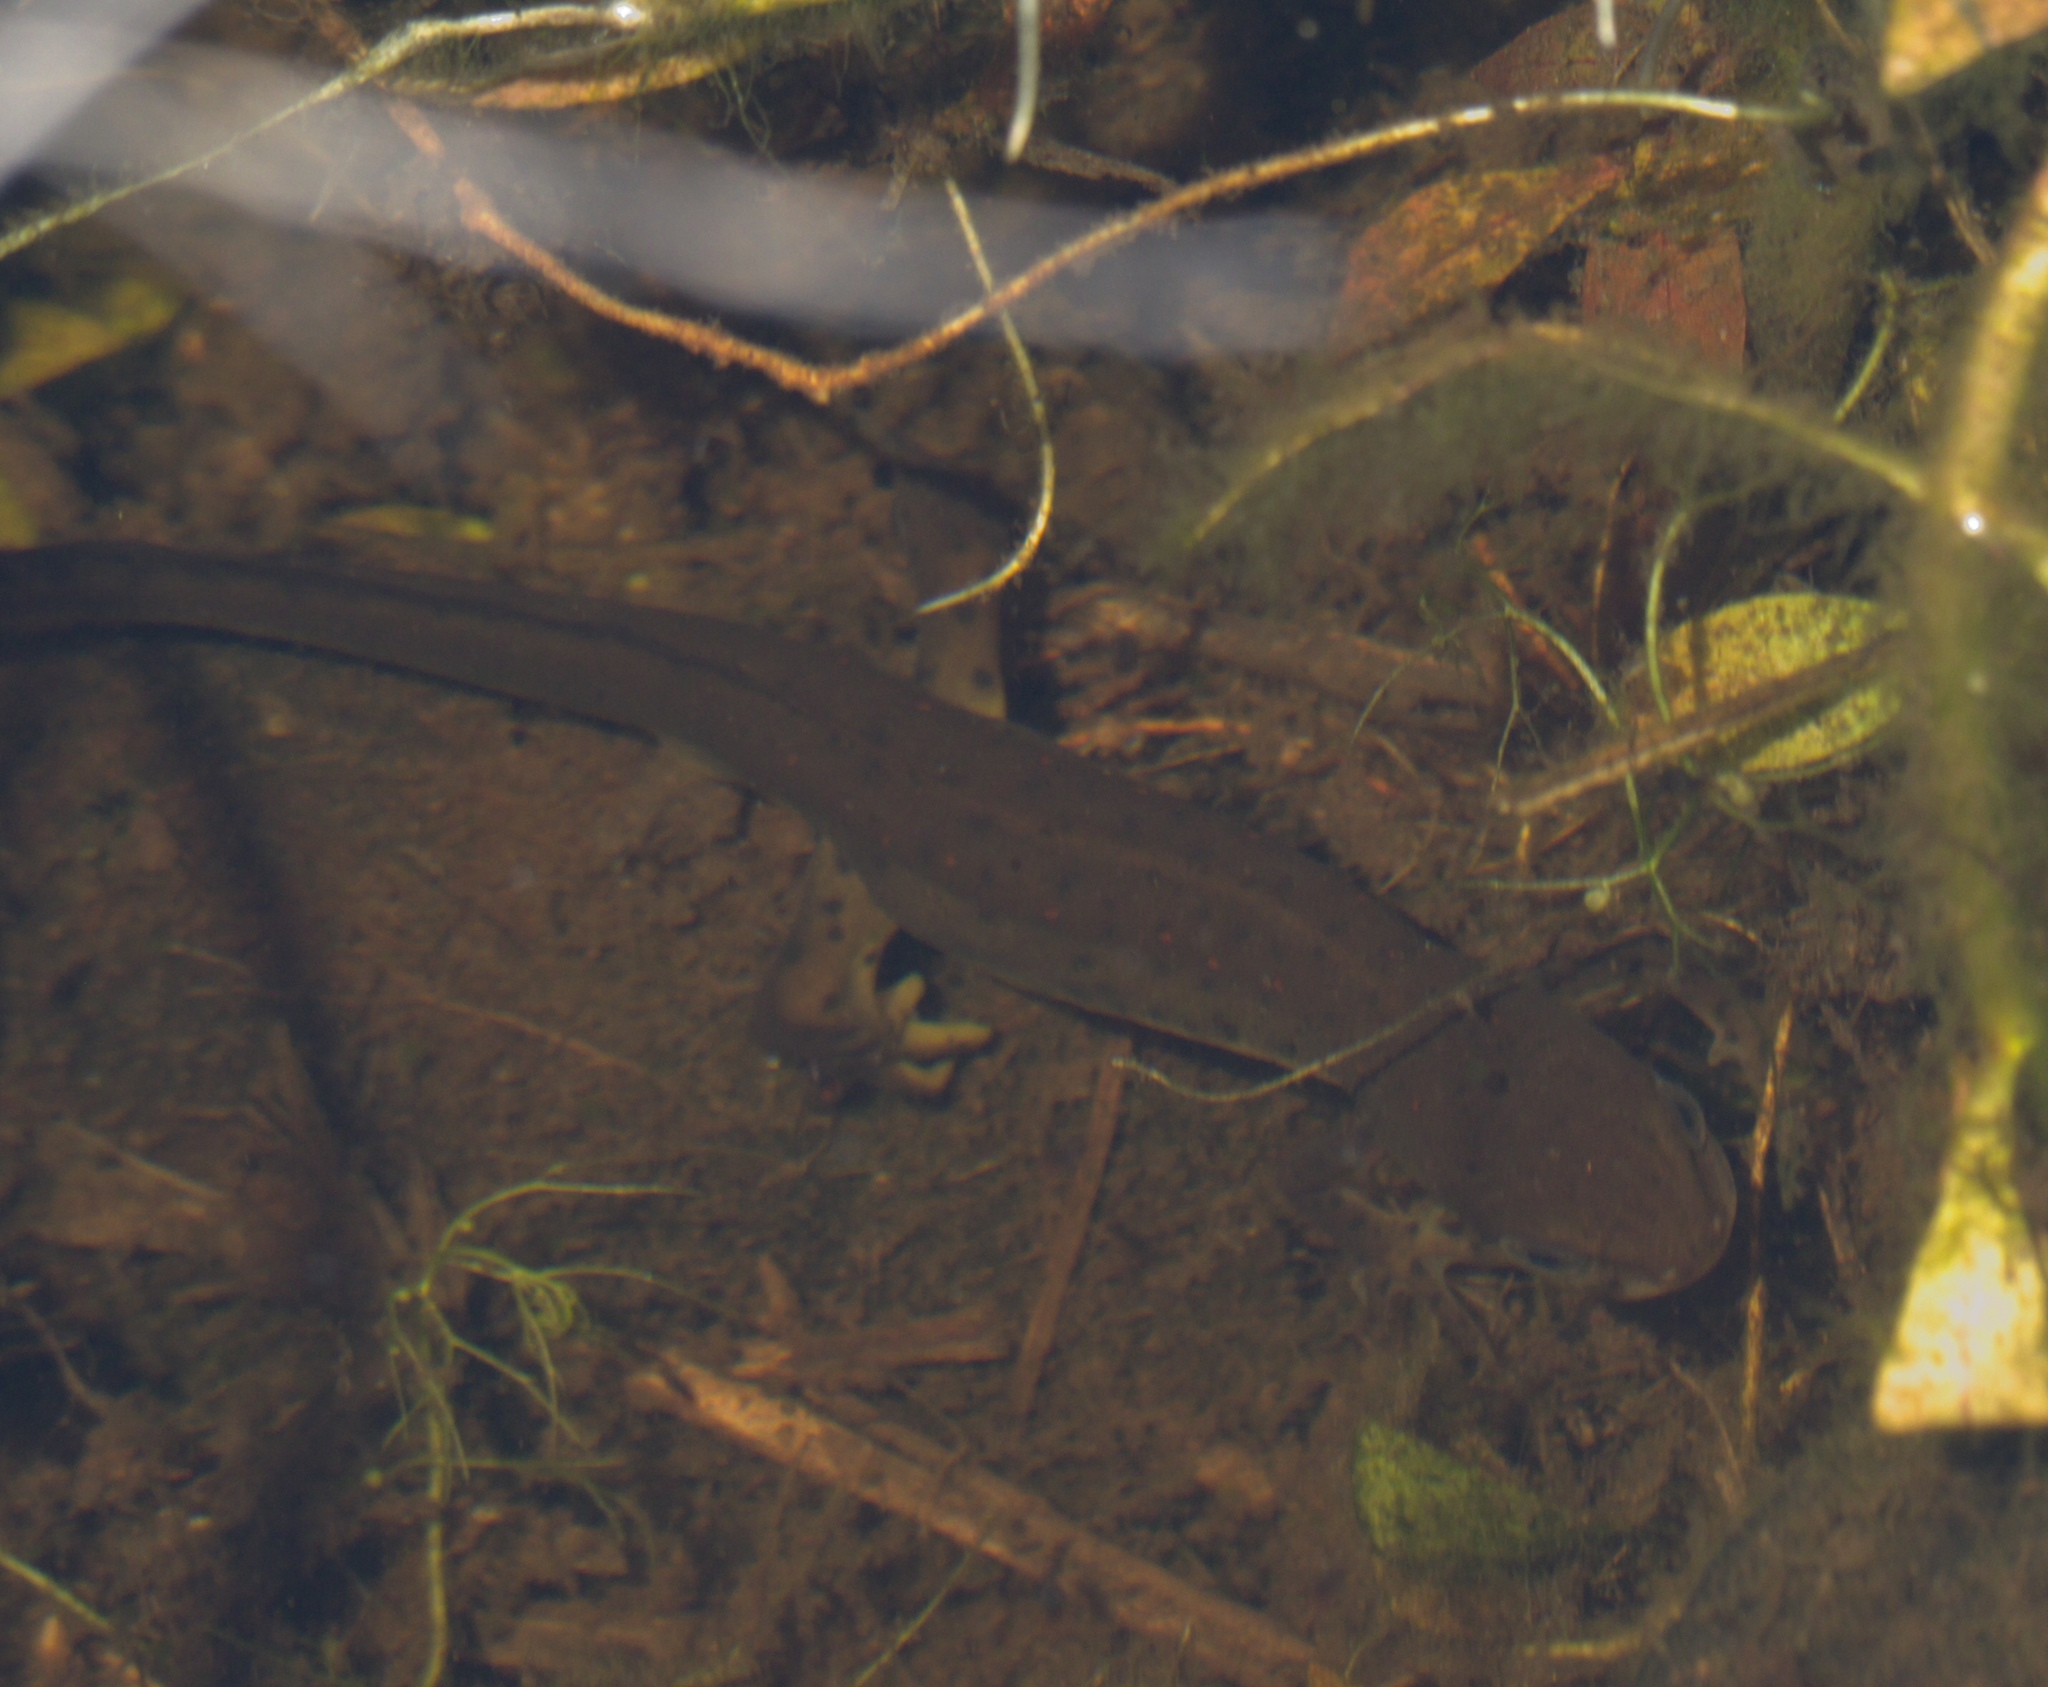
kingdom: Animalia
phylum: Chordata
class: Amphibia
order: Caudata
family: Salamandridae
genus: Notophthalmus
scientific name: Notophthalmus viridescens
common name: Eastern newt
